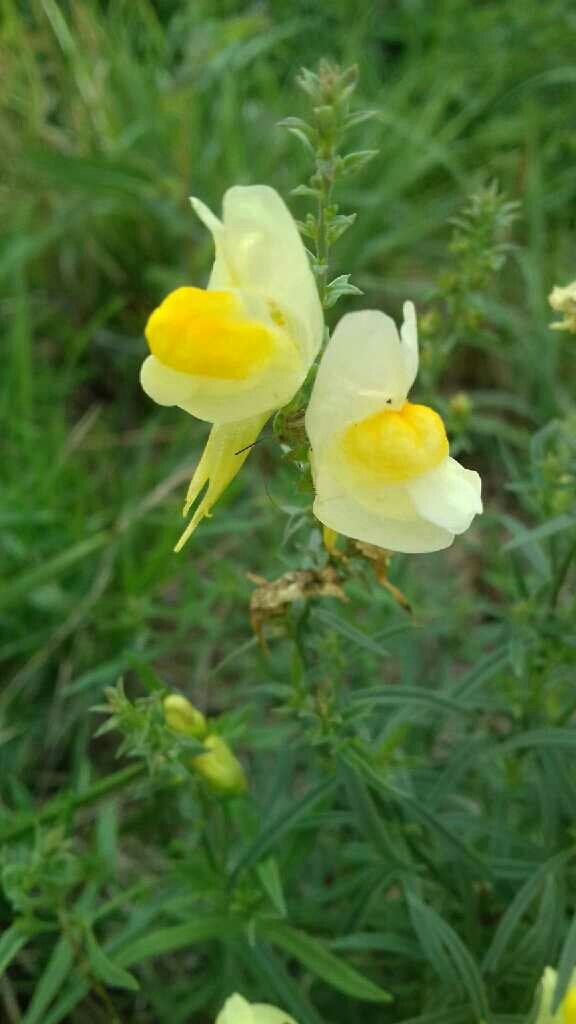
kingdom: Plantae
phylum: Tracheophyta
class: Magnoliopsida
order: Lamiales
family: Plantaginaceae
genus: Linaria
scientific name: Linaria vulgaris
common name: Butter and eggs
